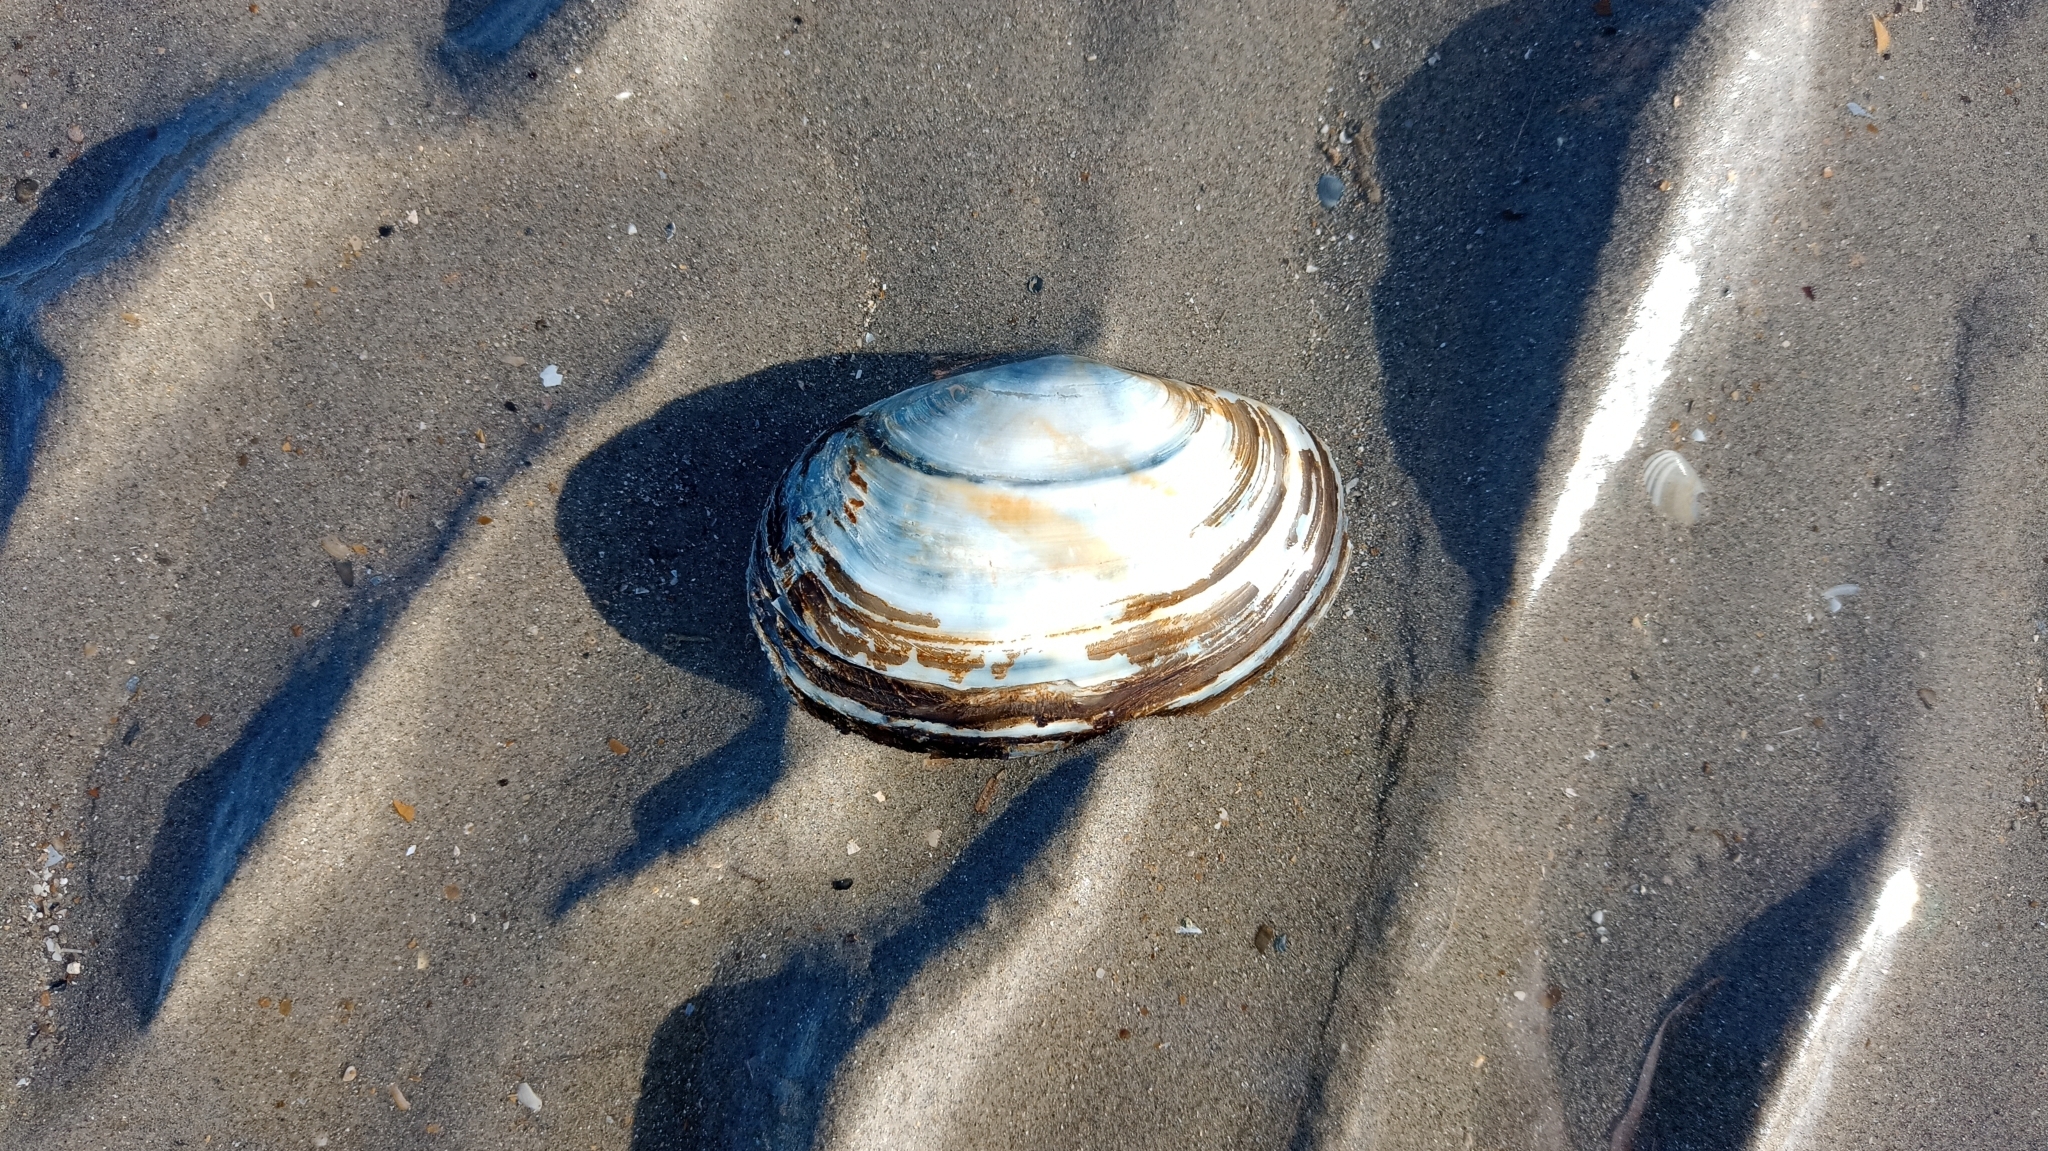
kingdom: Animalia
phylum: Mollusca
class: Bivalvia
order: Venerida
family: Mactridae
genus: Lutraria
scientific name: Lutraria lutraria
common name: Common otter shell
